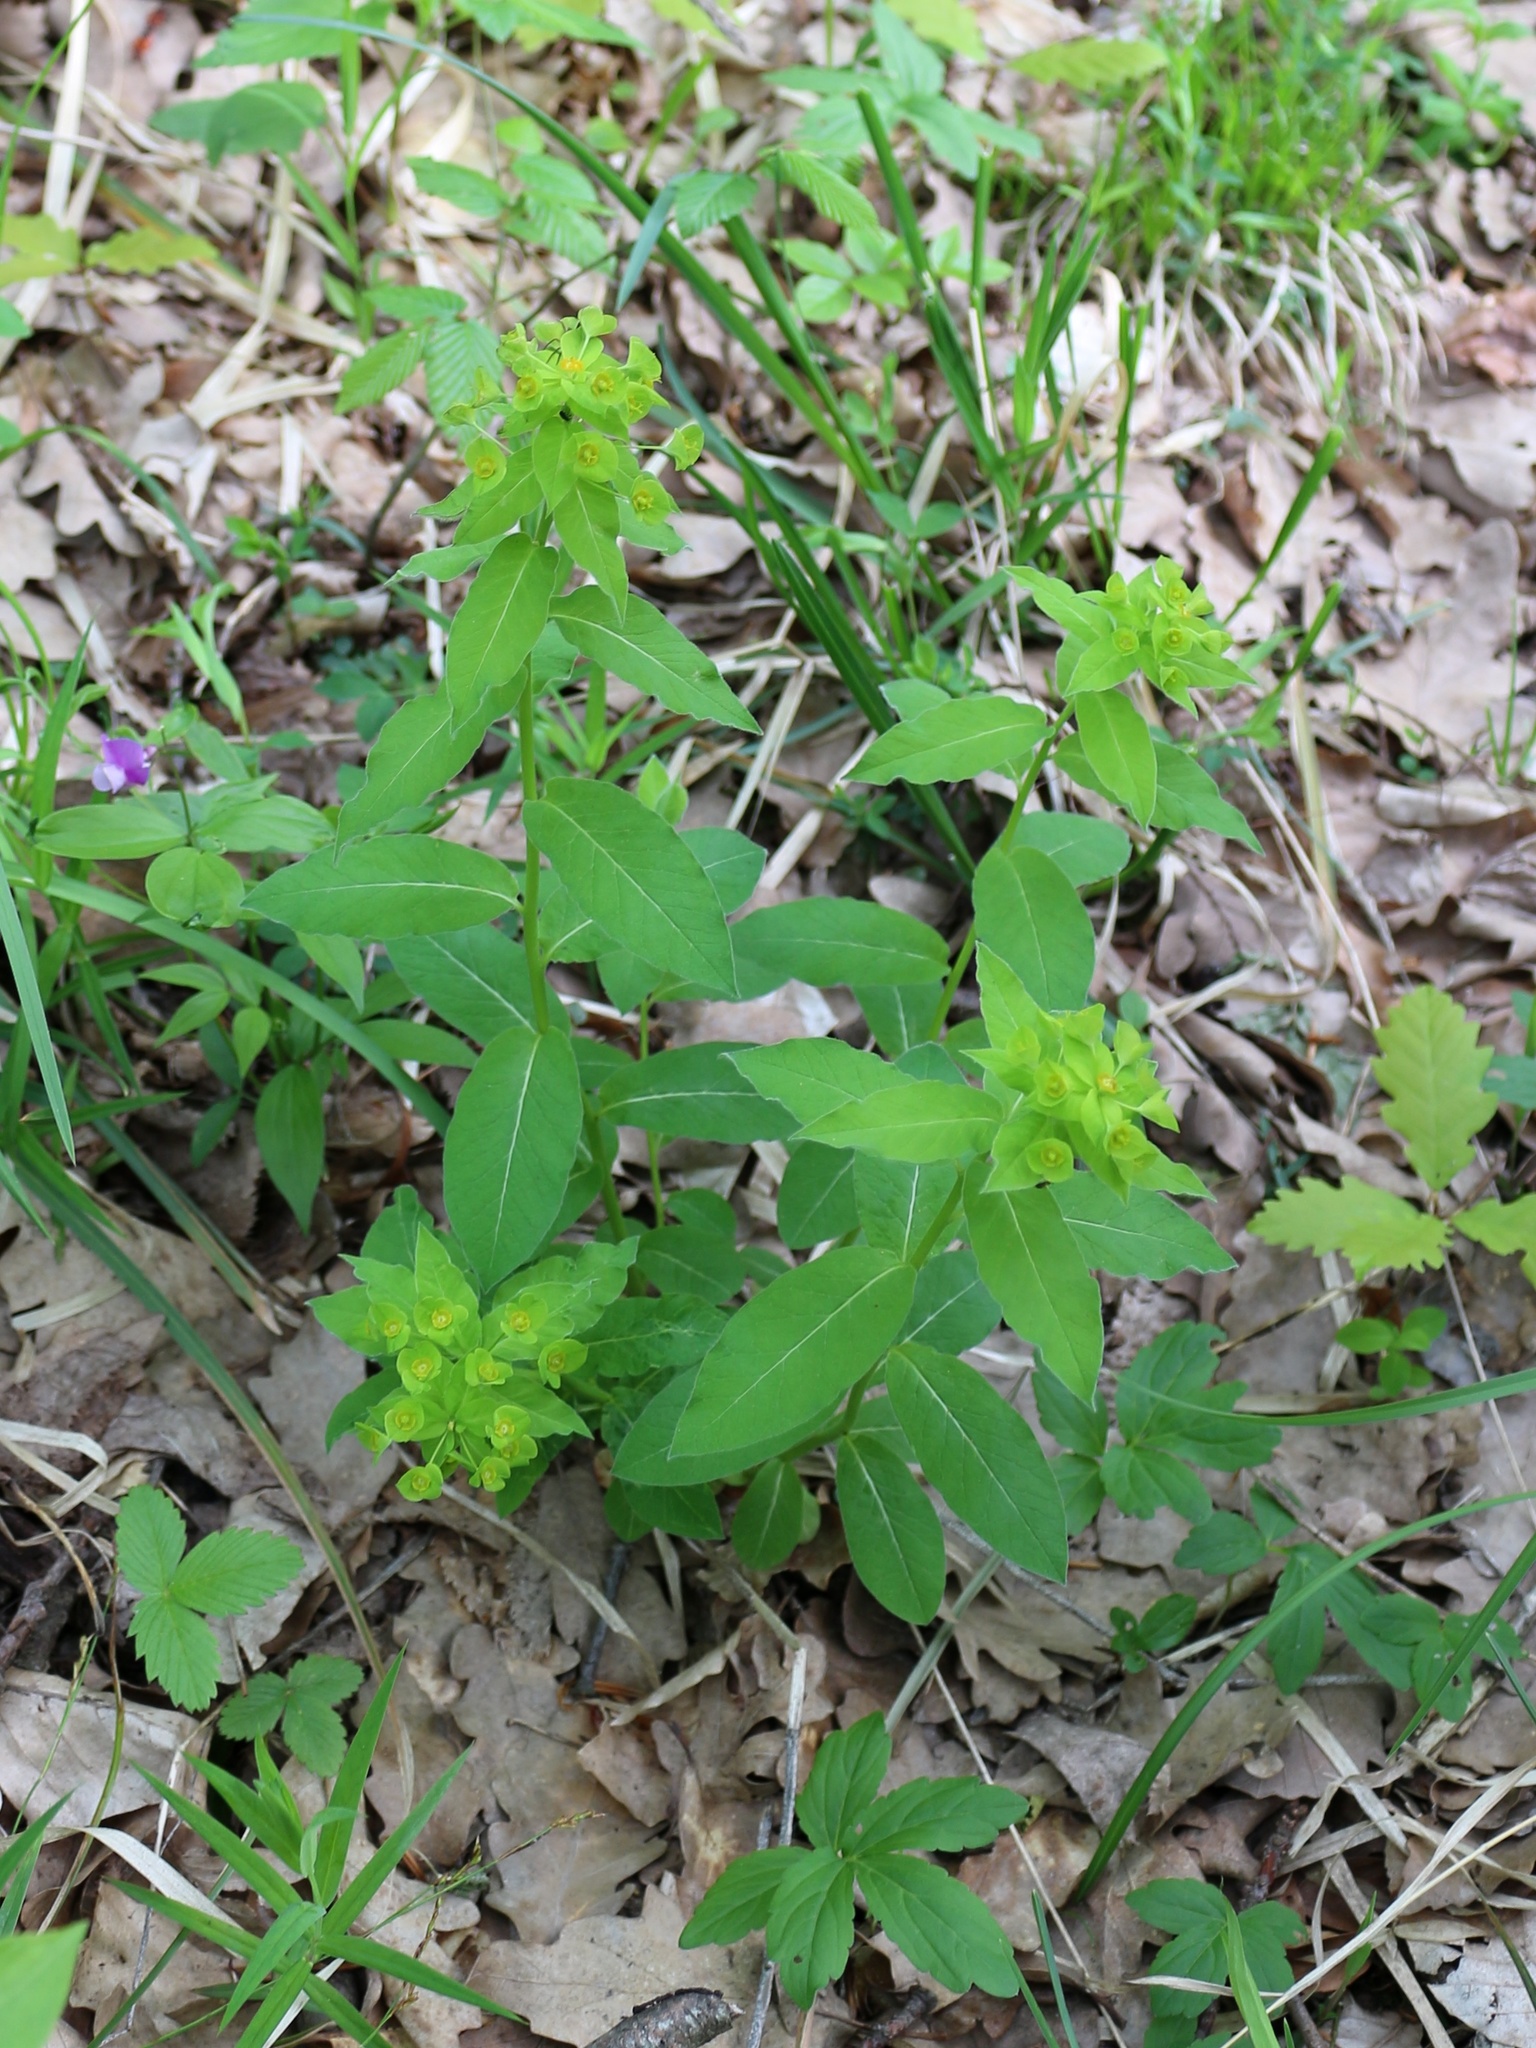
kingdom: Plantae
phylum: Tracheophyta
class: Magnoliopsida
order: Malpighiales
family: Euphorbiaceae
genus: Euphorbia
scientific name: Euphorbia squamosa
